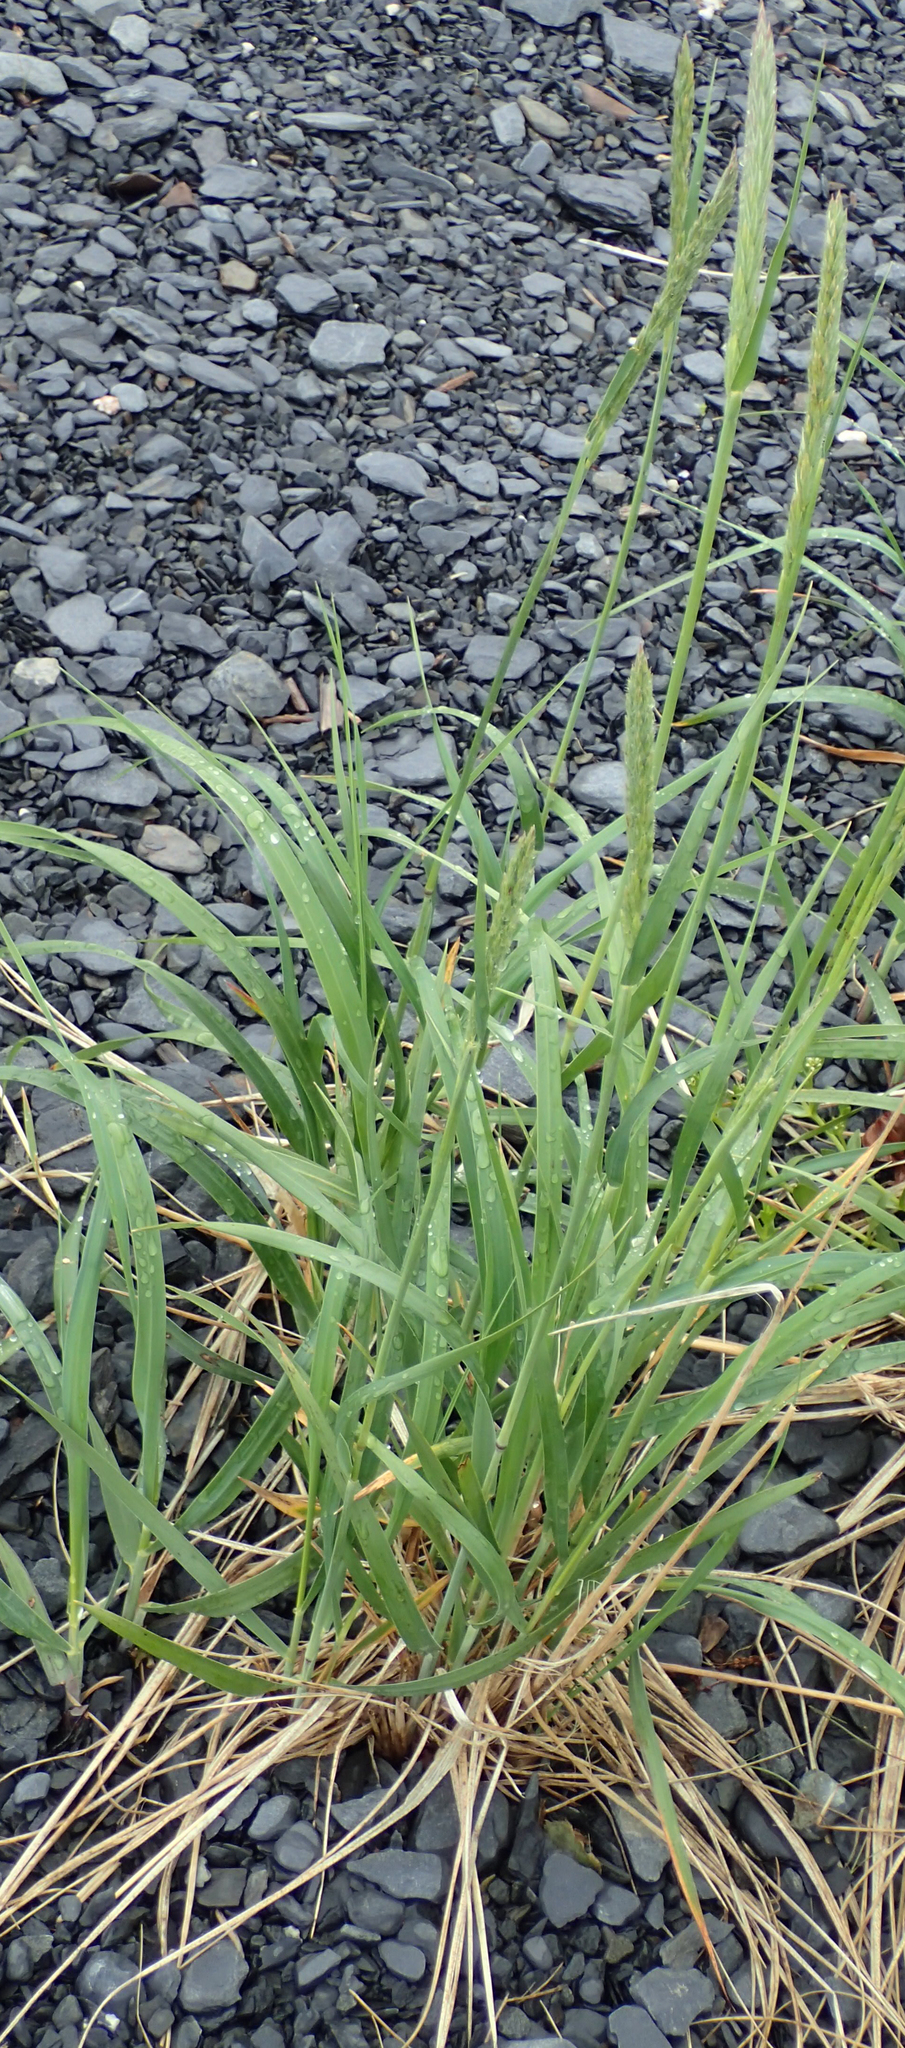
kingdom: Plantae
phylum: Tracheophyta
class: Liliopsida
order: Poales
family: Poaceae
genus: Leymus
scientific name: Leymus mollis
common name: American dune grass
